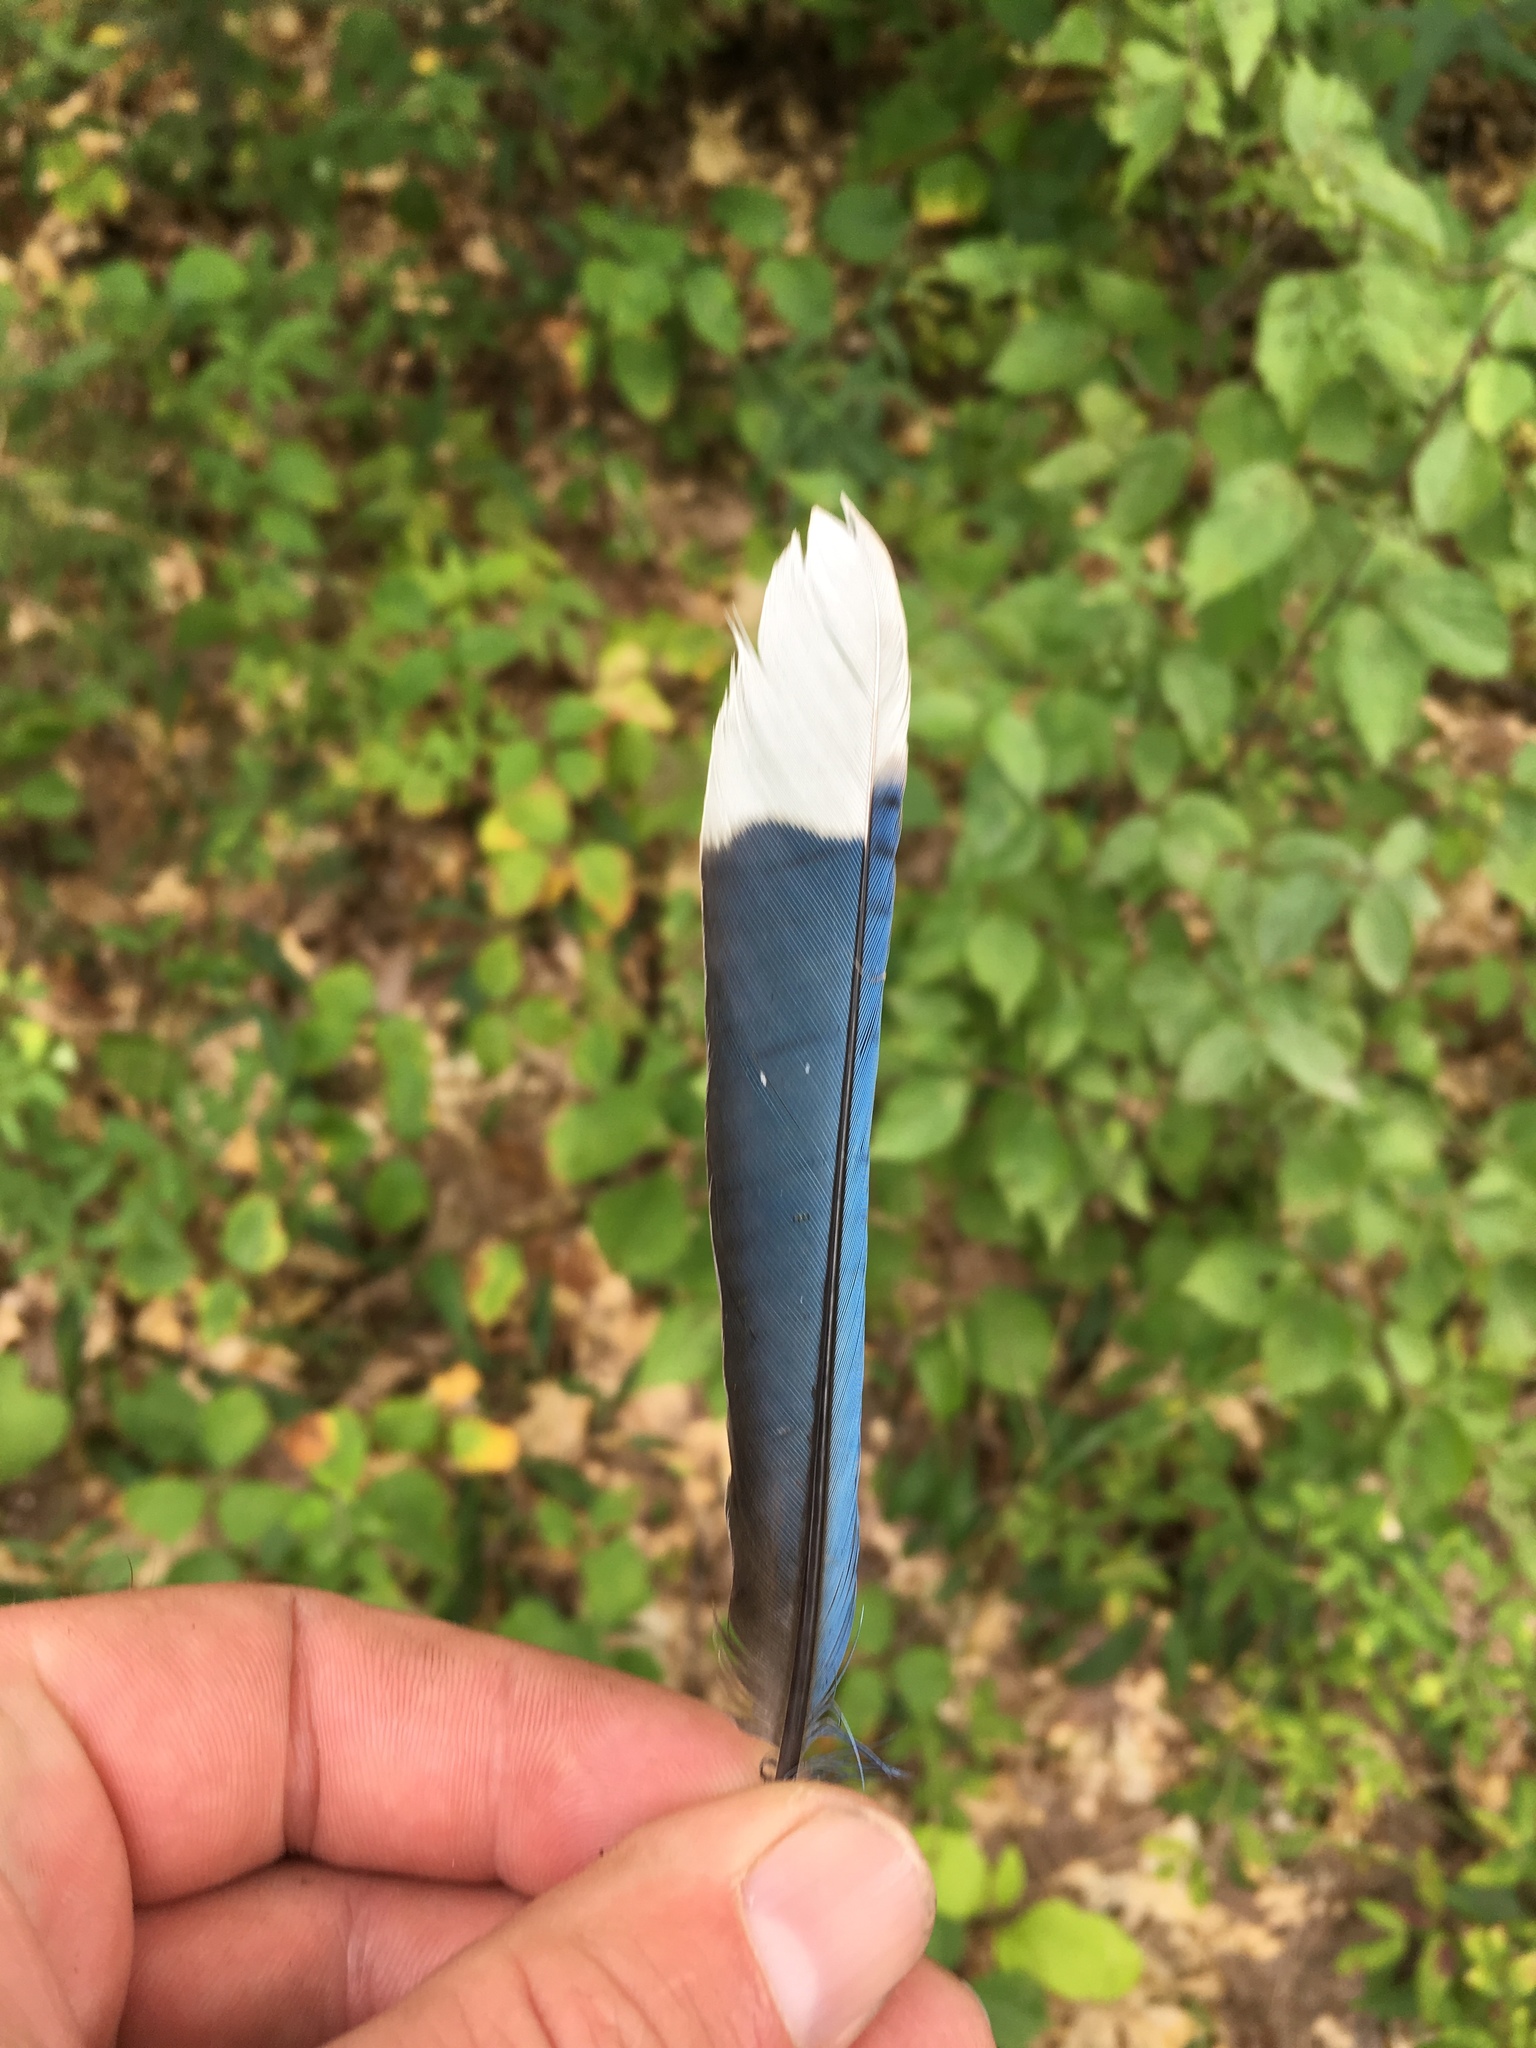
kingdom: Animalia
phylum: Chordata
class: Aves
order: Passeriformes
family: Corvidae
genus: Cyanocitta
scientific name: Cyanocitta cristata
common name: Blue jay
